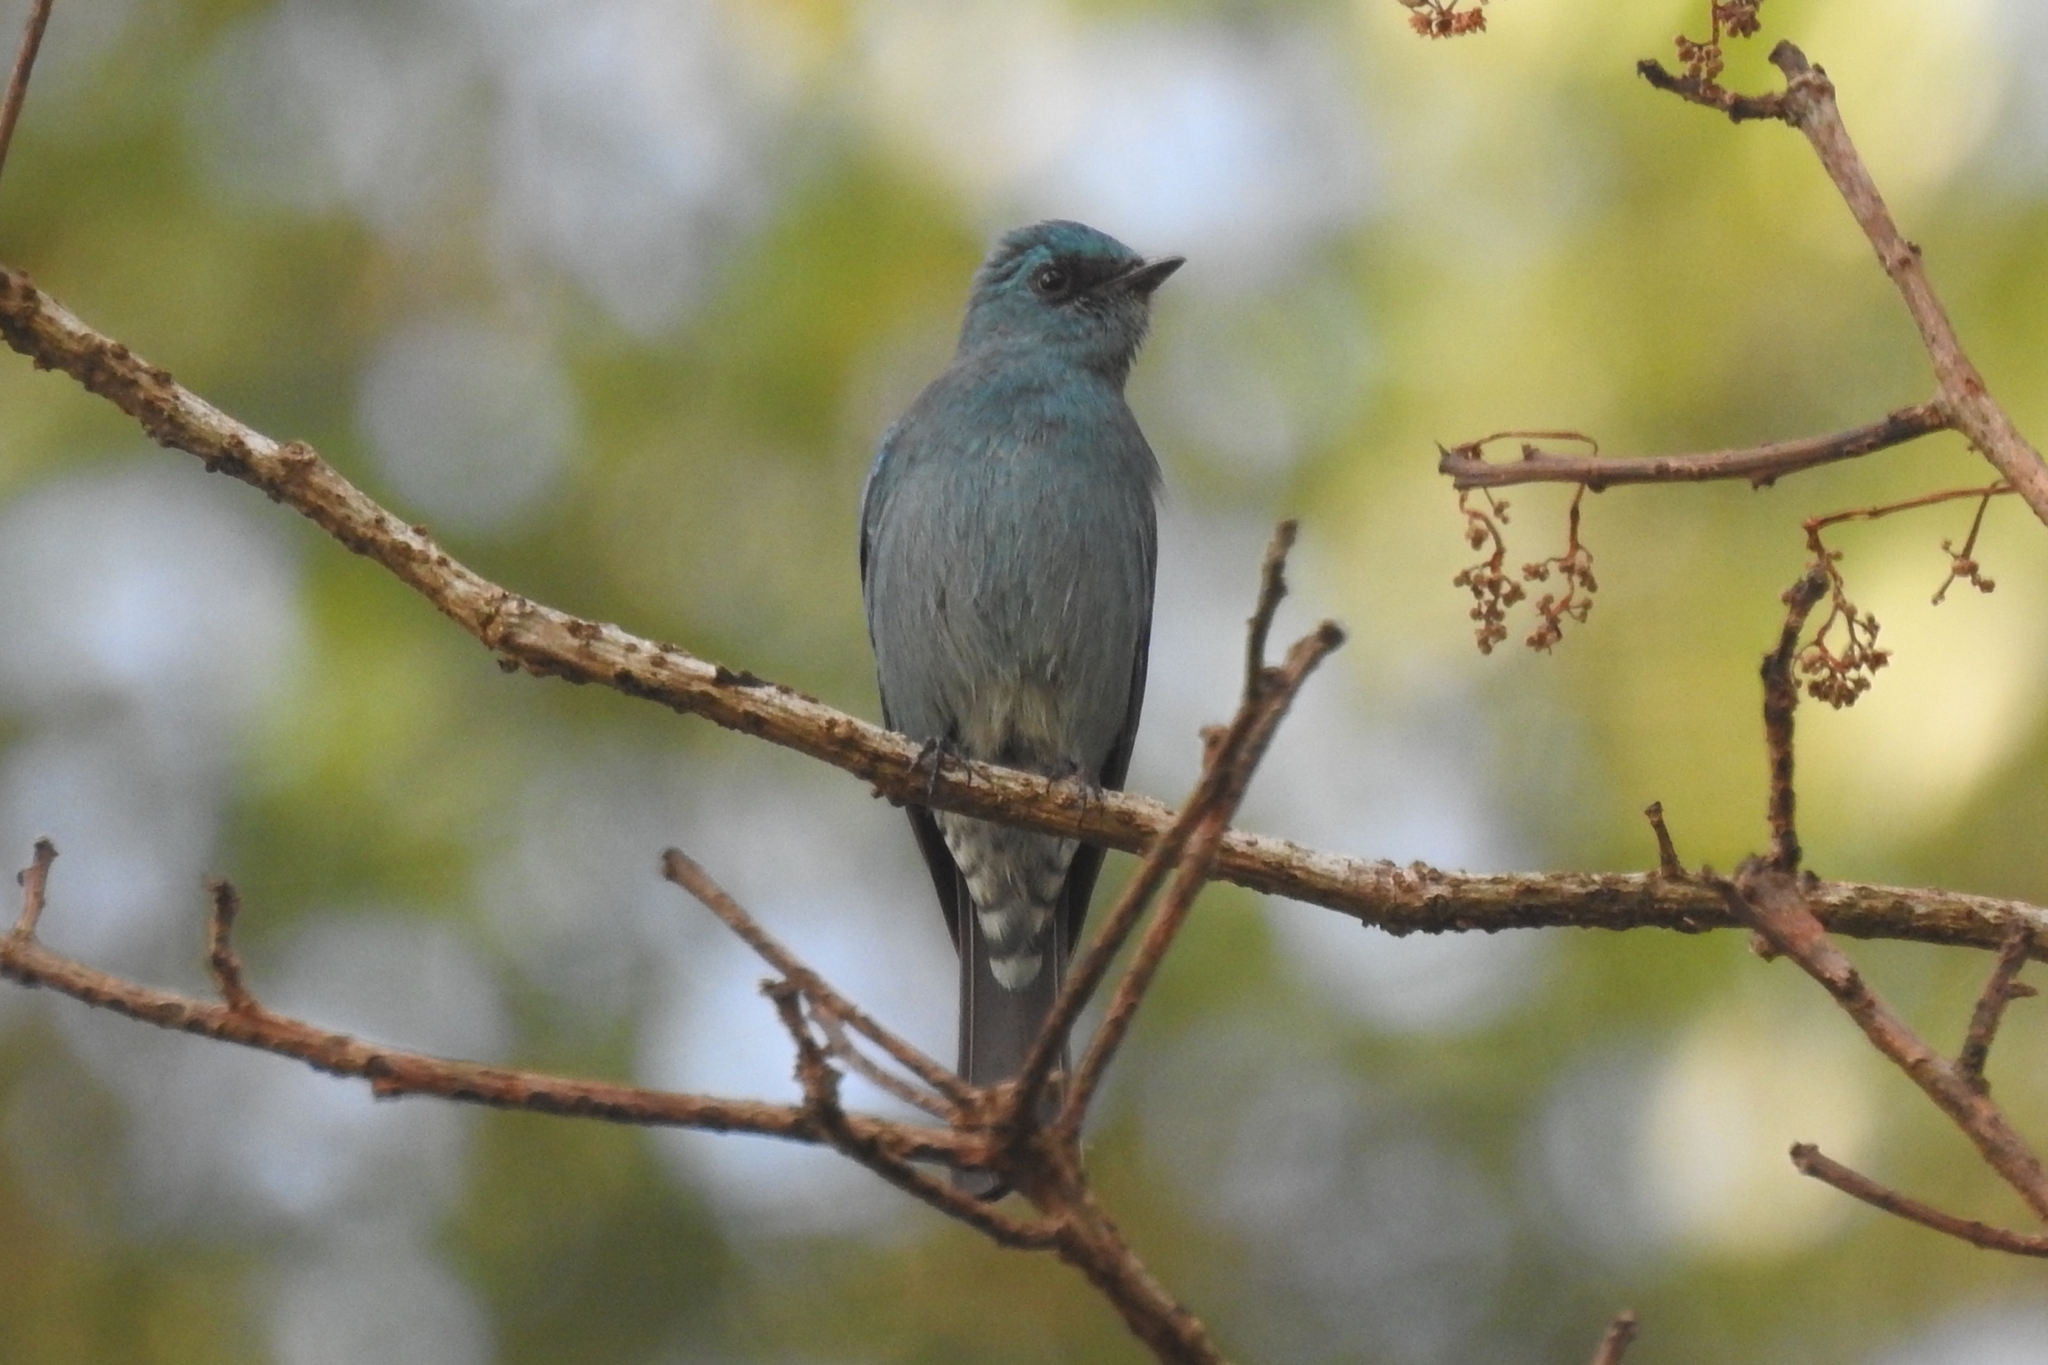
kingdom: Animalia
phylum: Chordata
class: Aves
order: Passeriformes
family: Muscicapidae
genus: Eumyias
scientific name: Eumyias thalassinus
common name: Verditer flycatcher
